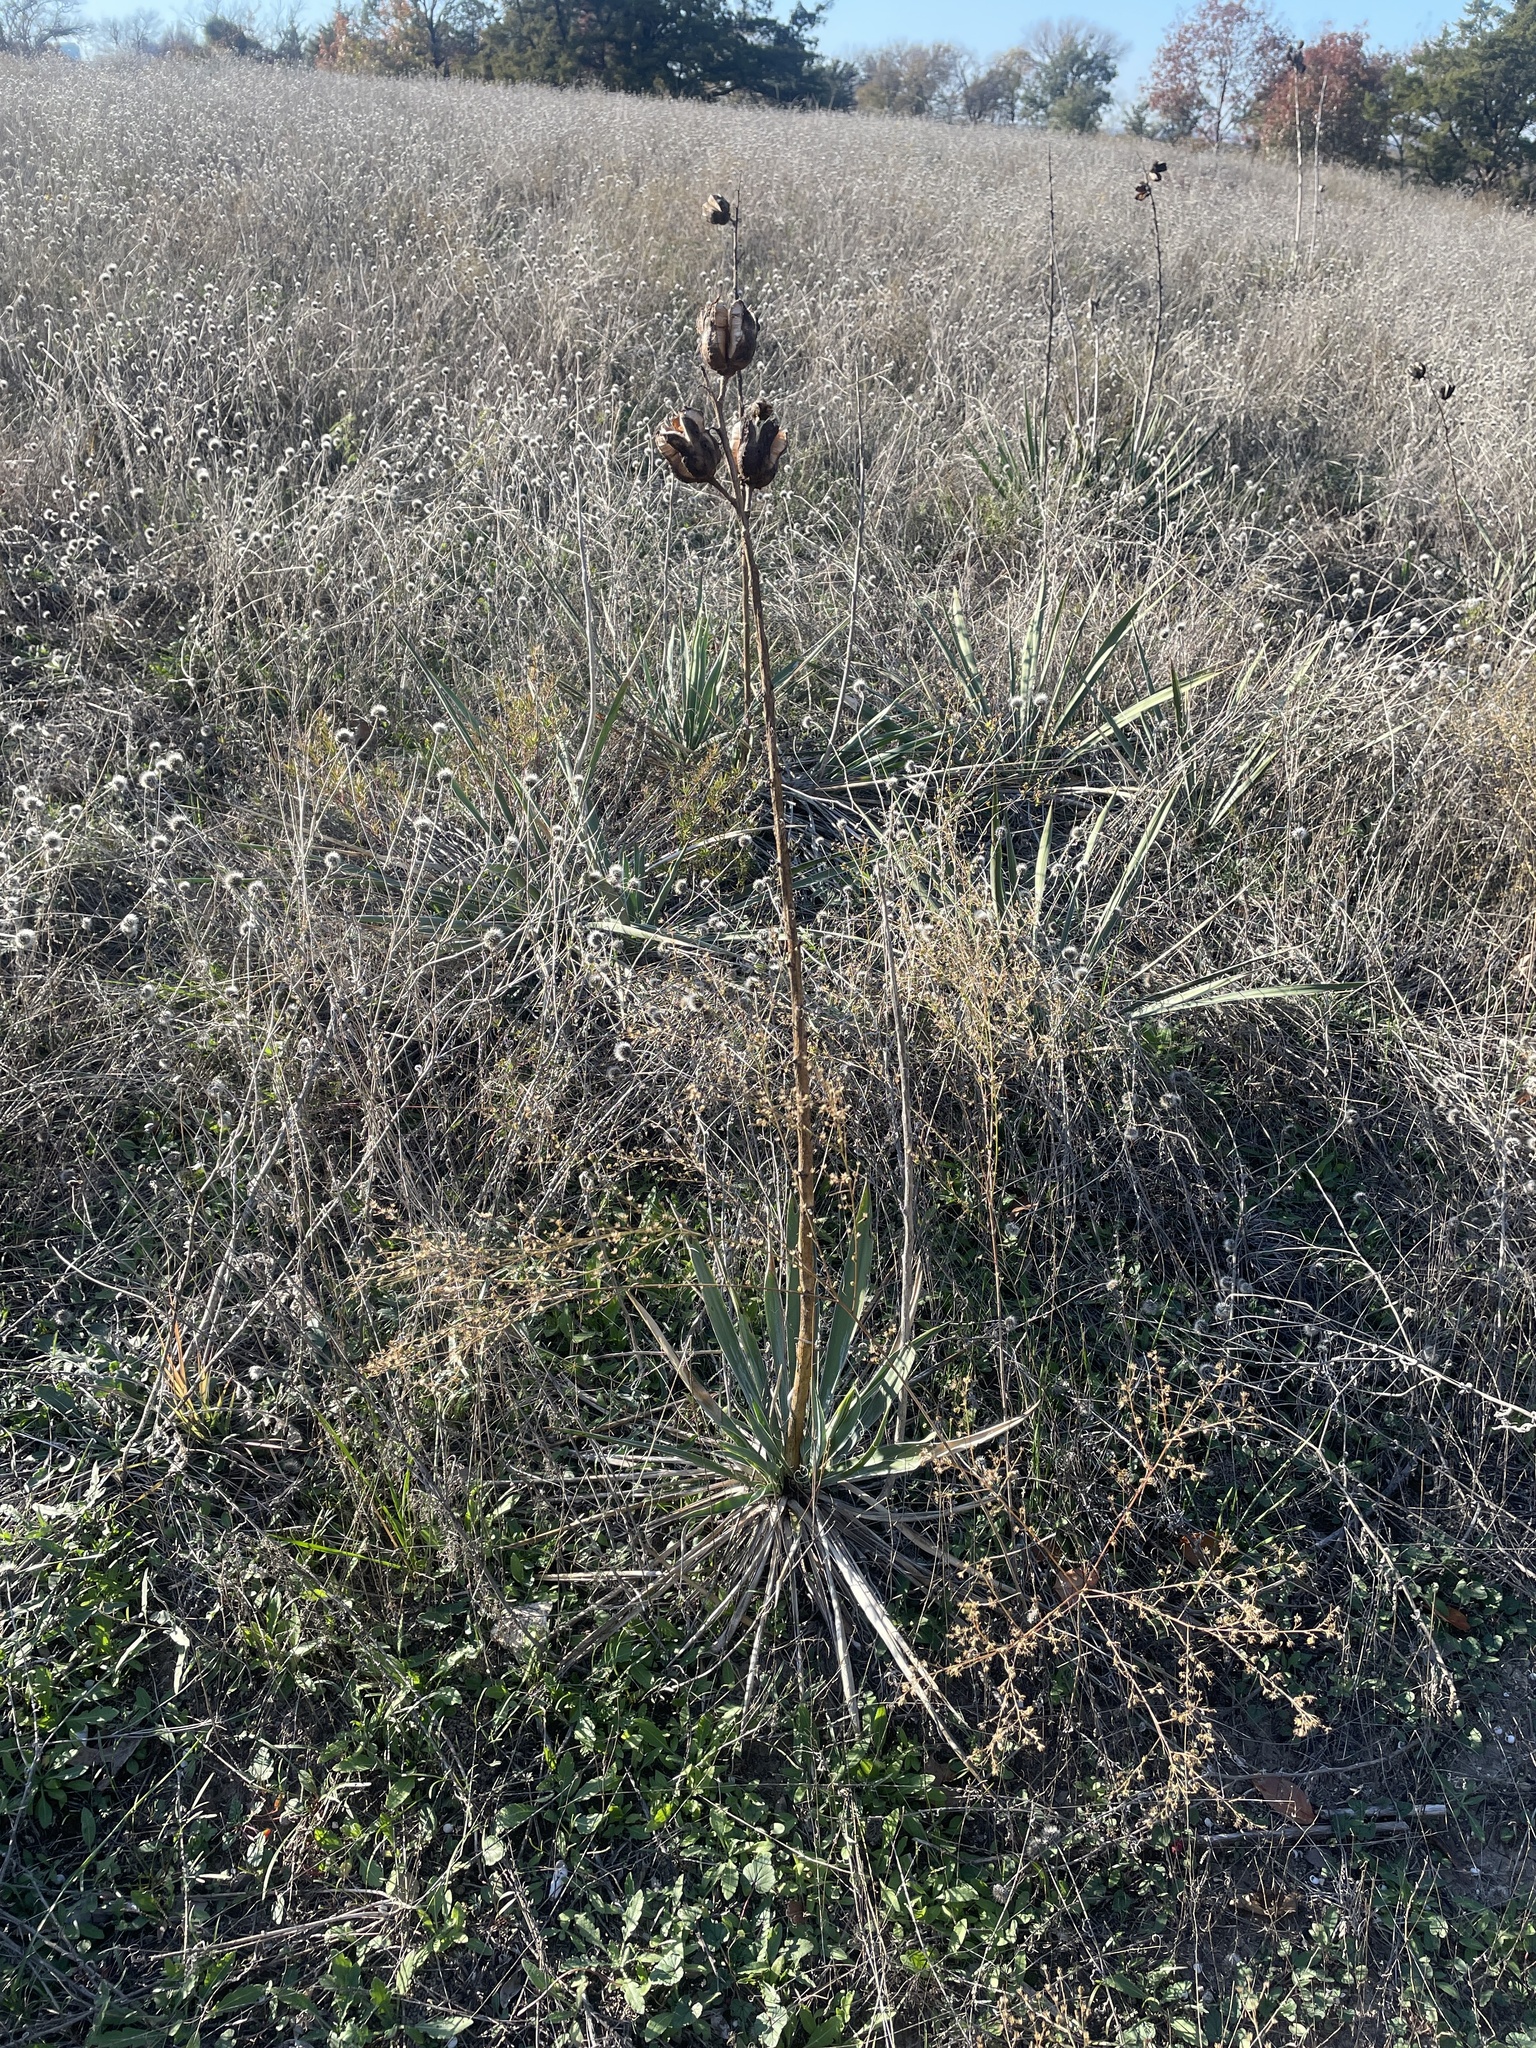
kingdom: Plantae
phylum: Tracheophyta
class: Liliopsida
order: Asparagales
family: Asparagaceae
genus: Yucca
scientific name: Yucca arkansana
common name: Arkansas yucca
